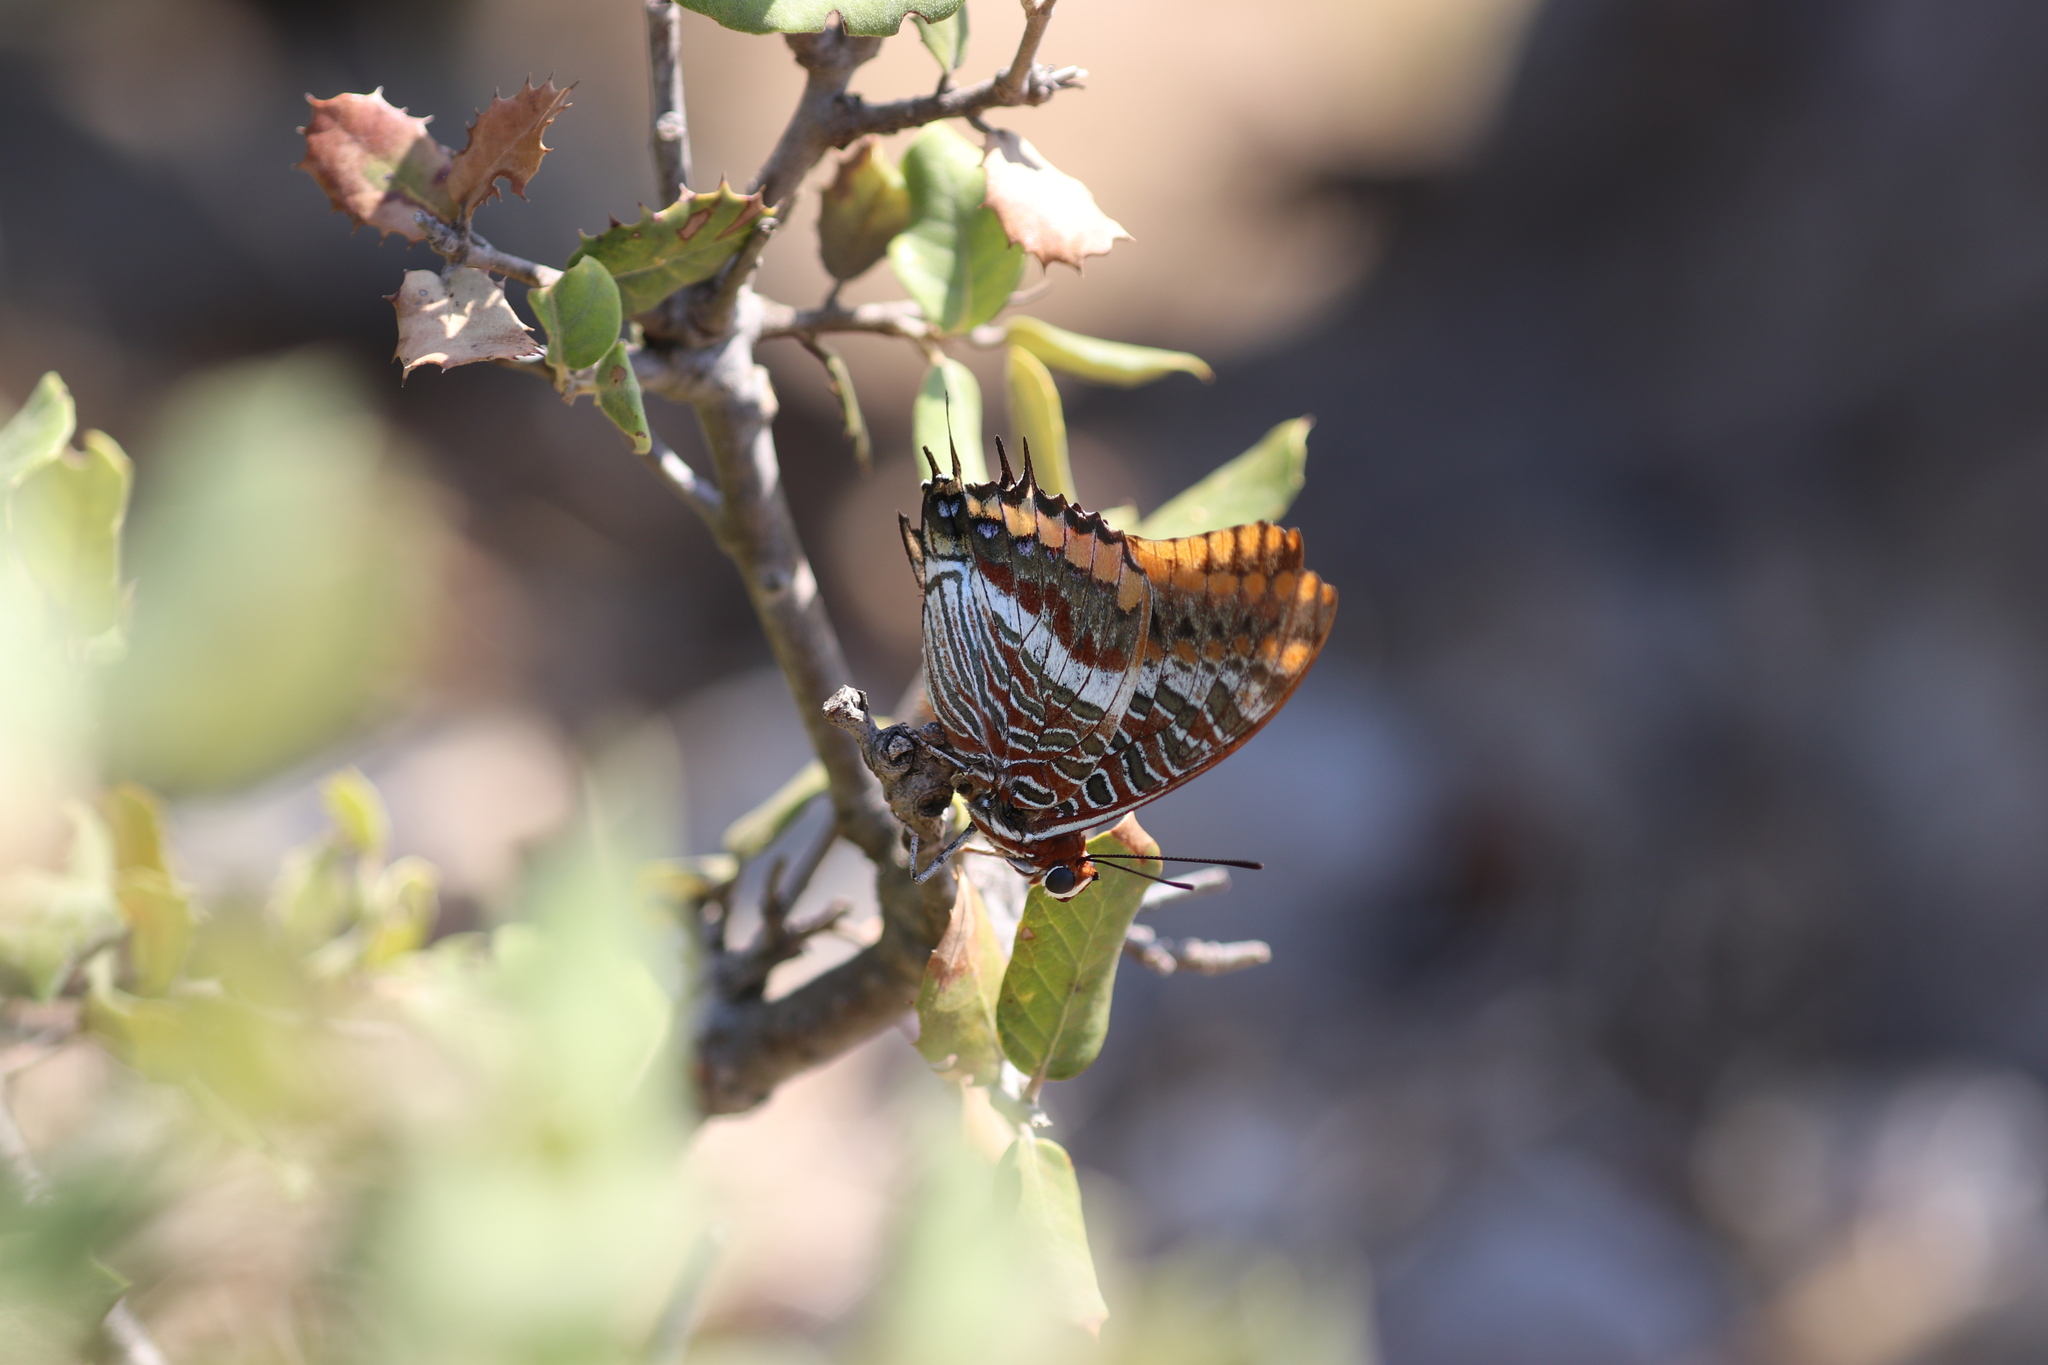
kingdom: Animalia
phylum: Arthropoda
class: Insecta
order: Lepidoptera
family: Nymphalidae
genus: Charaxes
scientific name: Charaxes jasius
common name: Two tailed pasha
